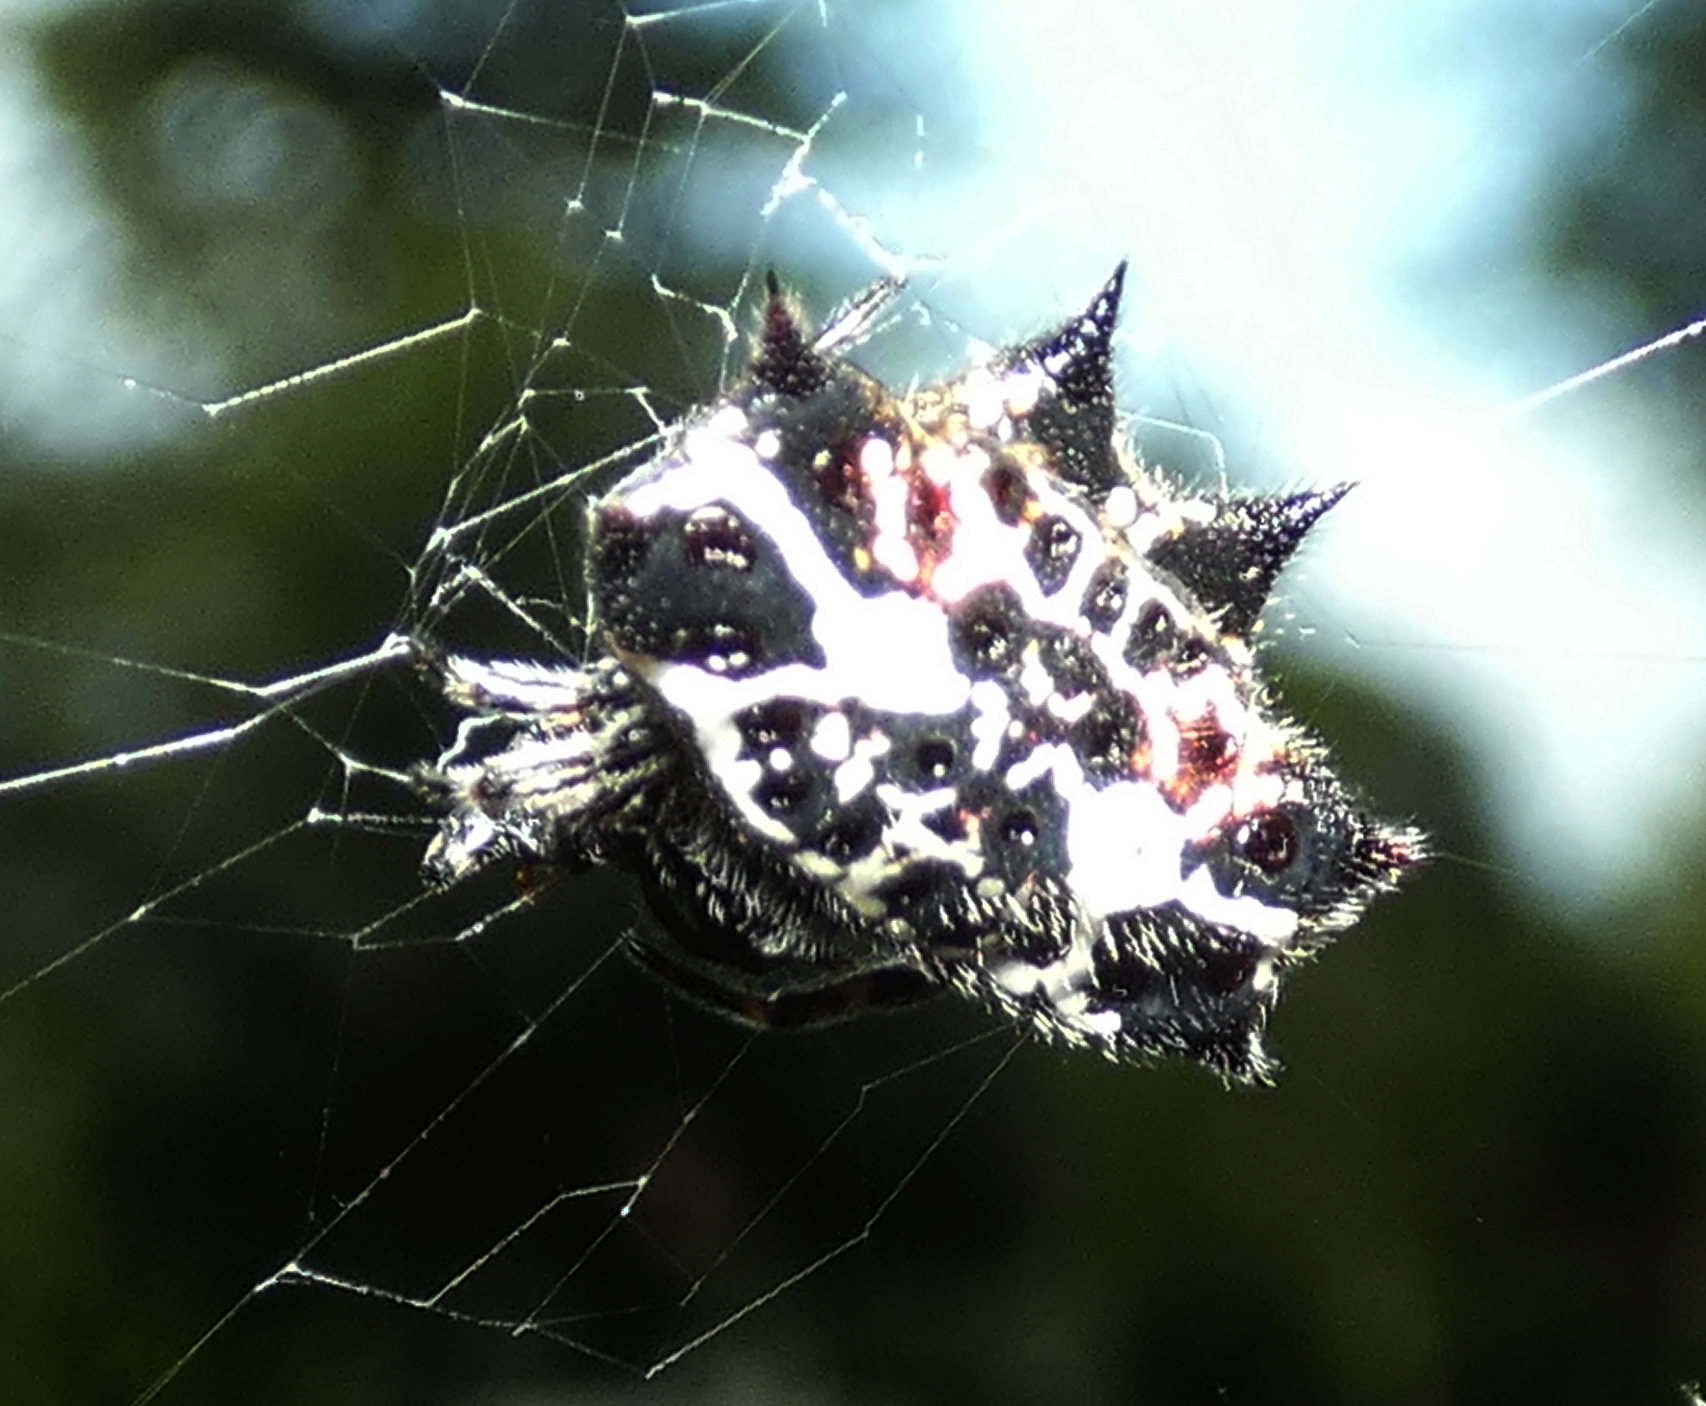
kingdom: Animalia
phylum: Arthropoda
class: Arachnida
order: Araneae
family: Araneidae
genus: Gasteracantha
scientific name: Gasteracantha cancriformis
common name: Orb weavers
